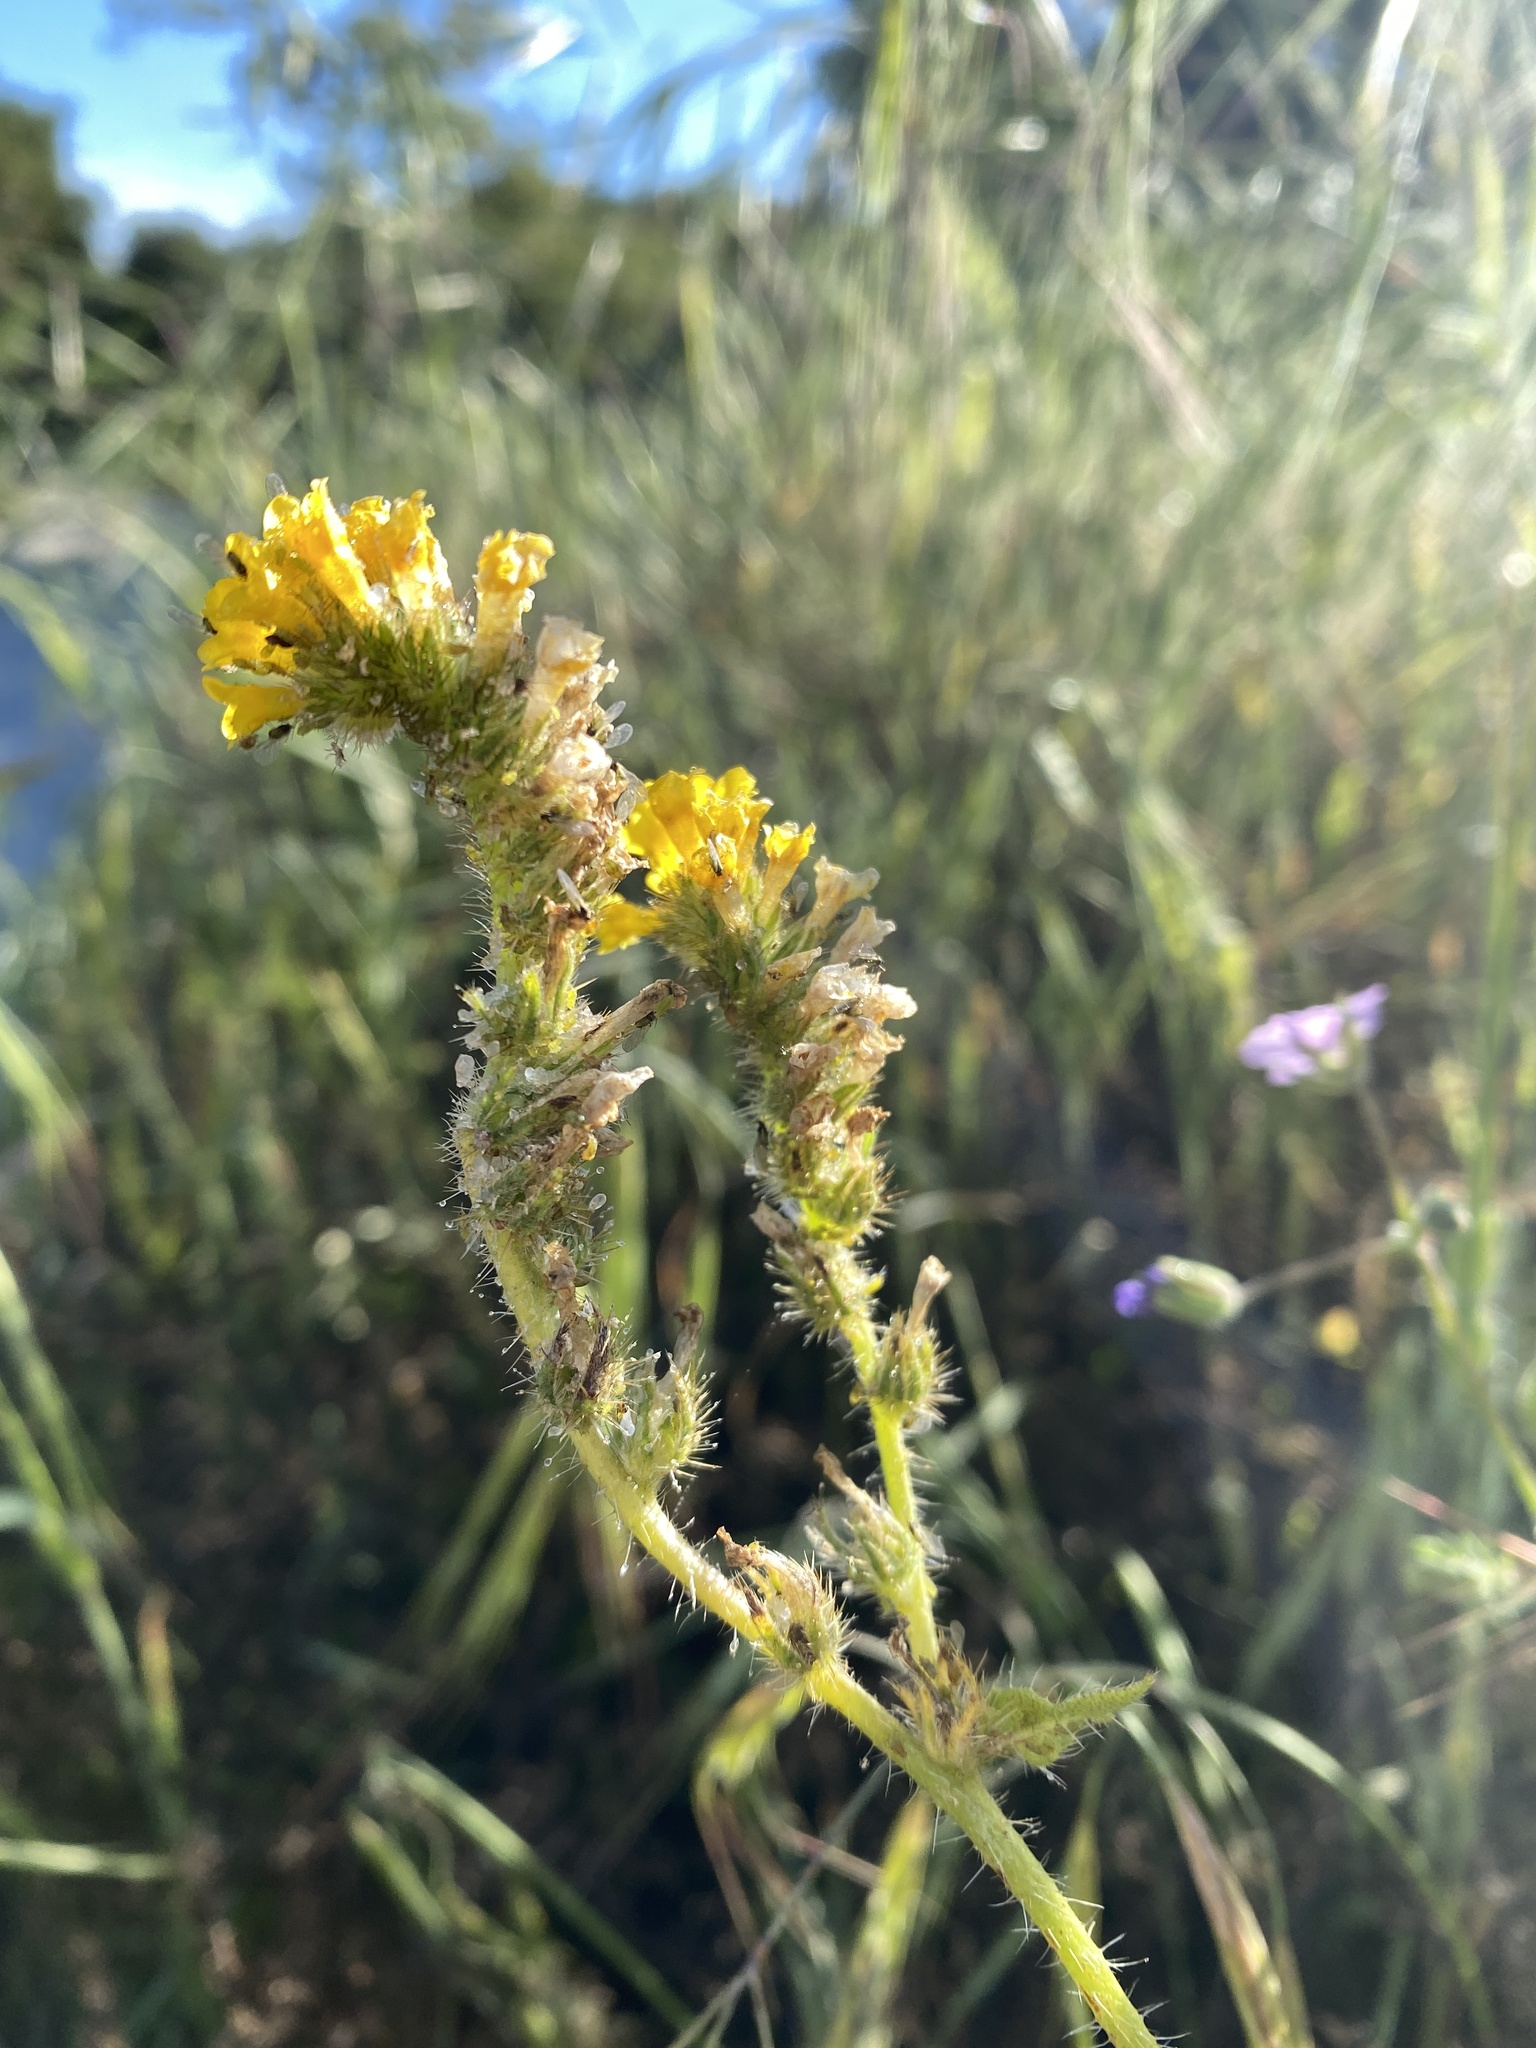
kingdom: Plantae
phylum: Tracheophyta
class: Magnoliopsida
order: Boraginales
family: Boraginaceae
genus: Amsinckia
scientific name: Amsinckia menziesii
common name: Menzies' fiddleneck
